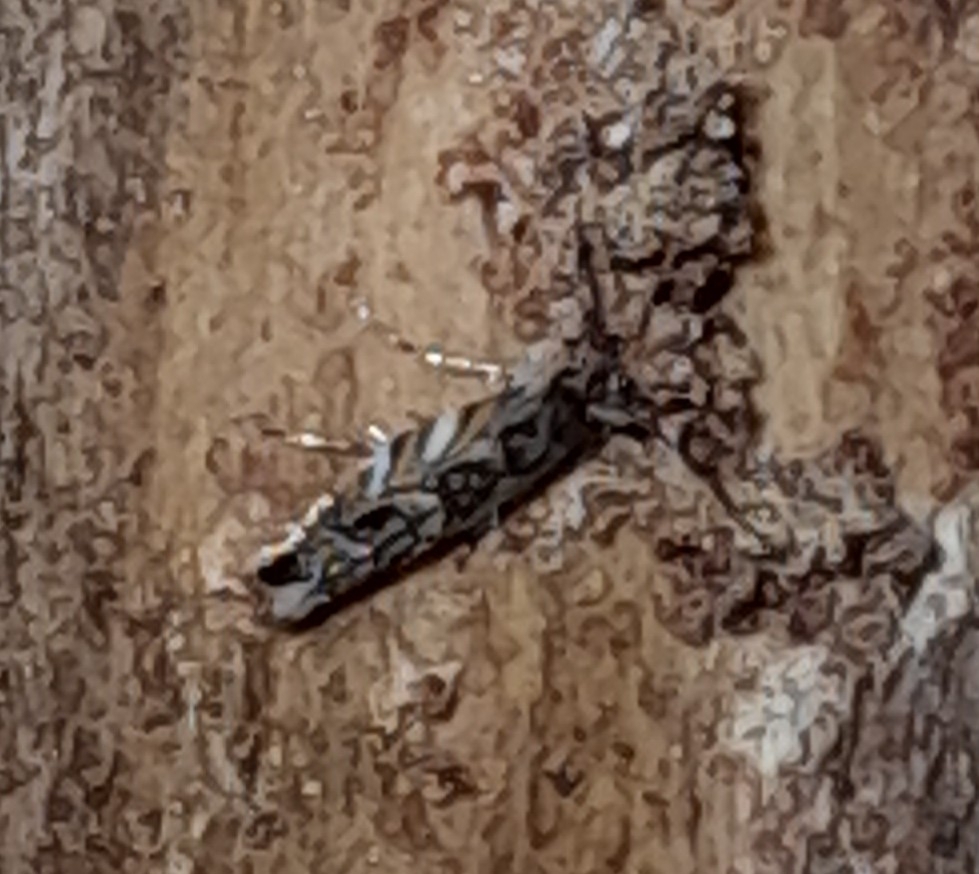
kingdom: Animalia
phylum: Arthropoda
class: Insecta
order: Lepidoptera
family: Gracillariidae
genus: Macrosaccus
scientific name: Macrosaccus robiniella
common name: Leaf blotch miner moth
